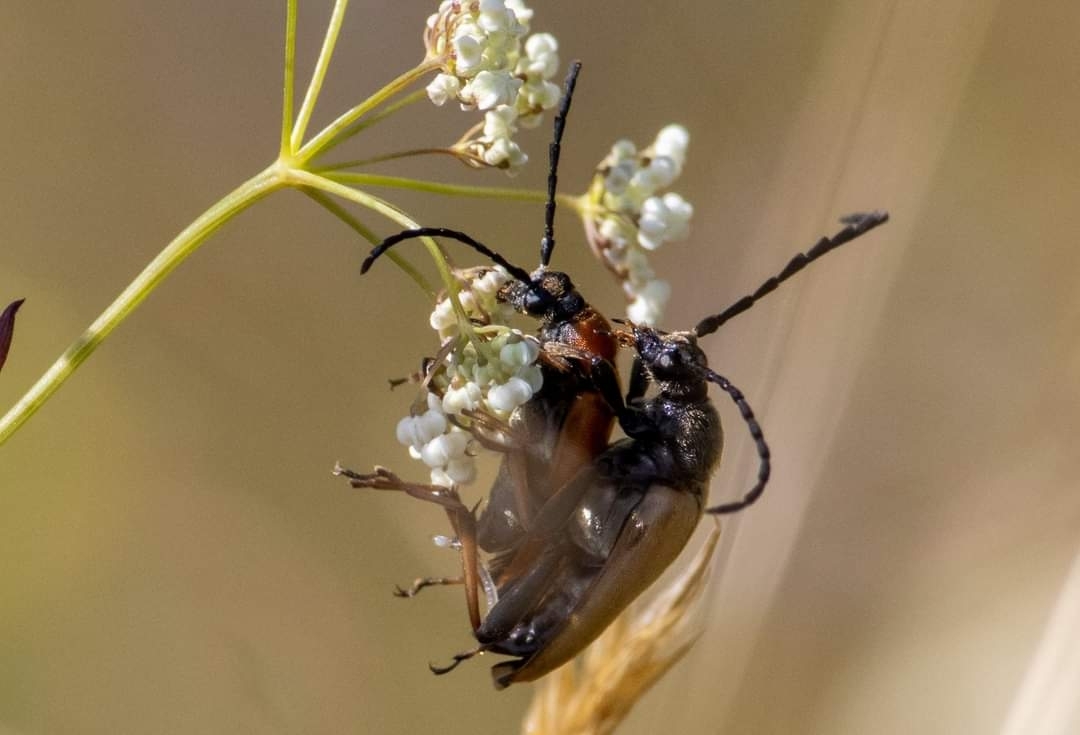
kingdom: Animalia
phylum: Arthropoda
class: Insecta
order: Coleoptera
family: Cerambycidae
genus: Stictoleptura
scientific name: Stictoleptura rubra
